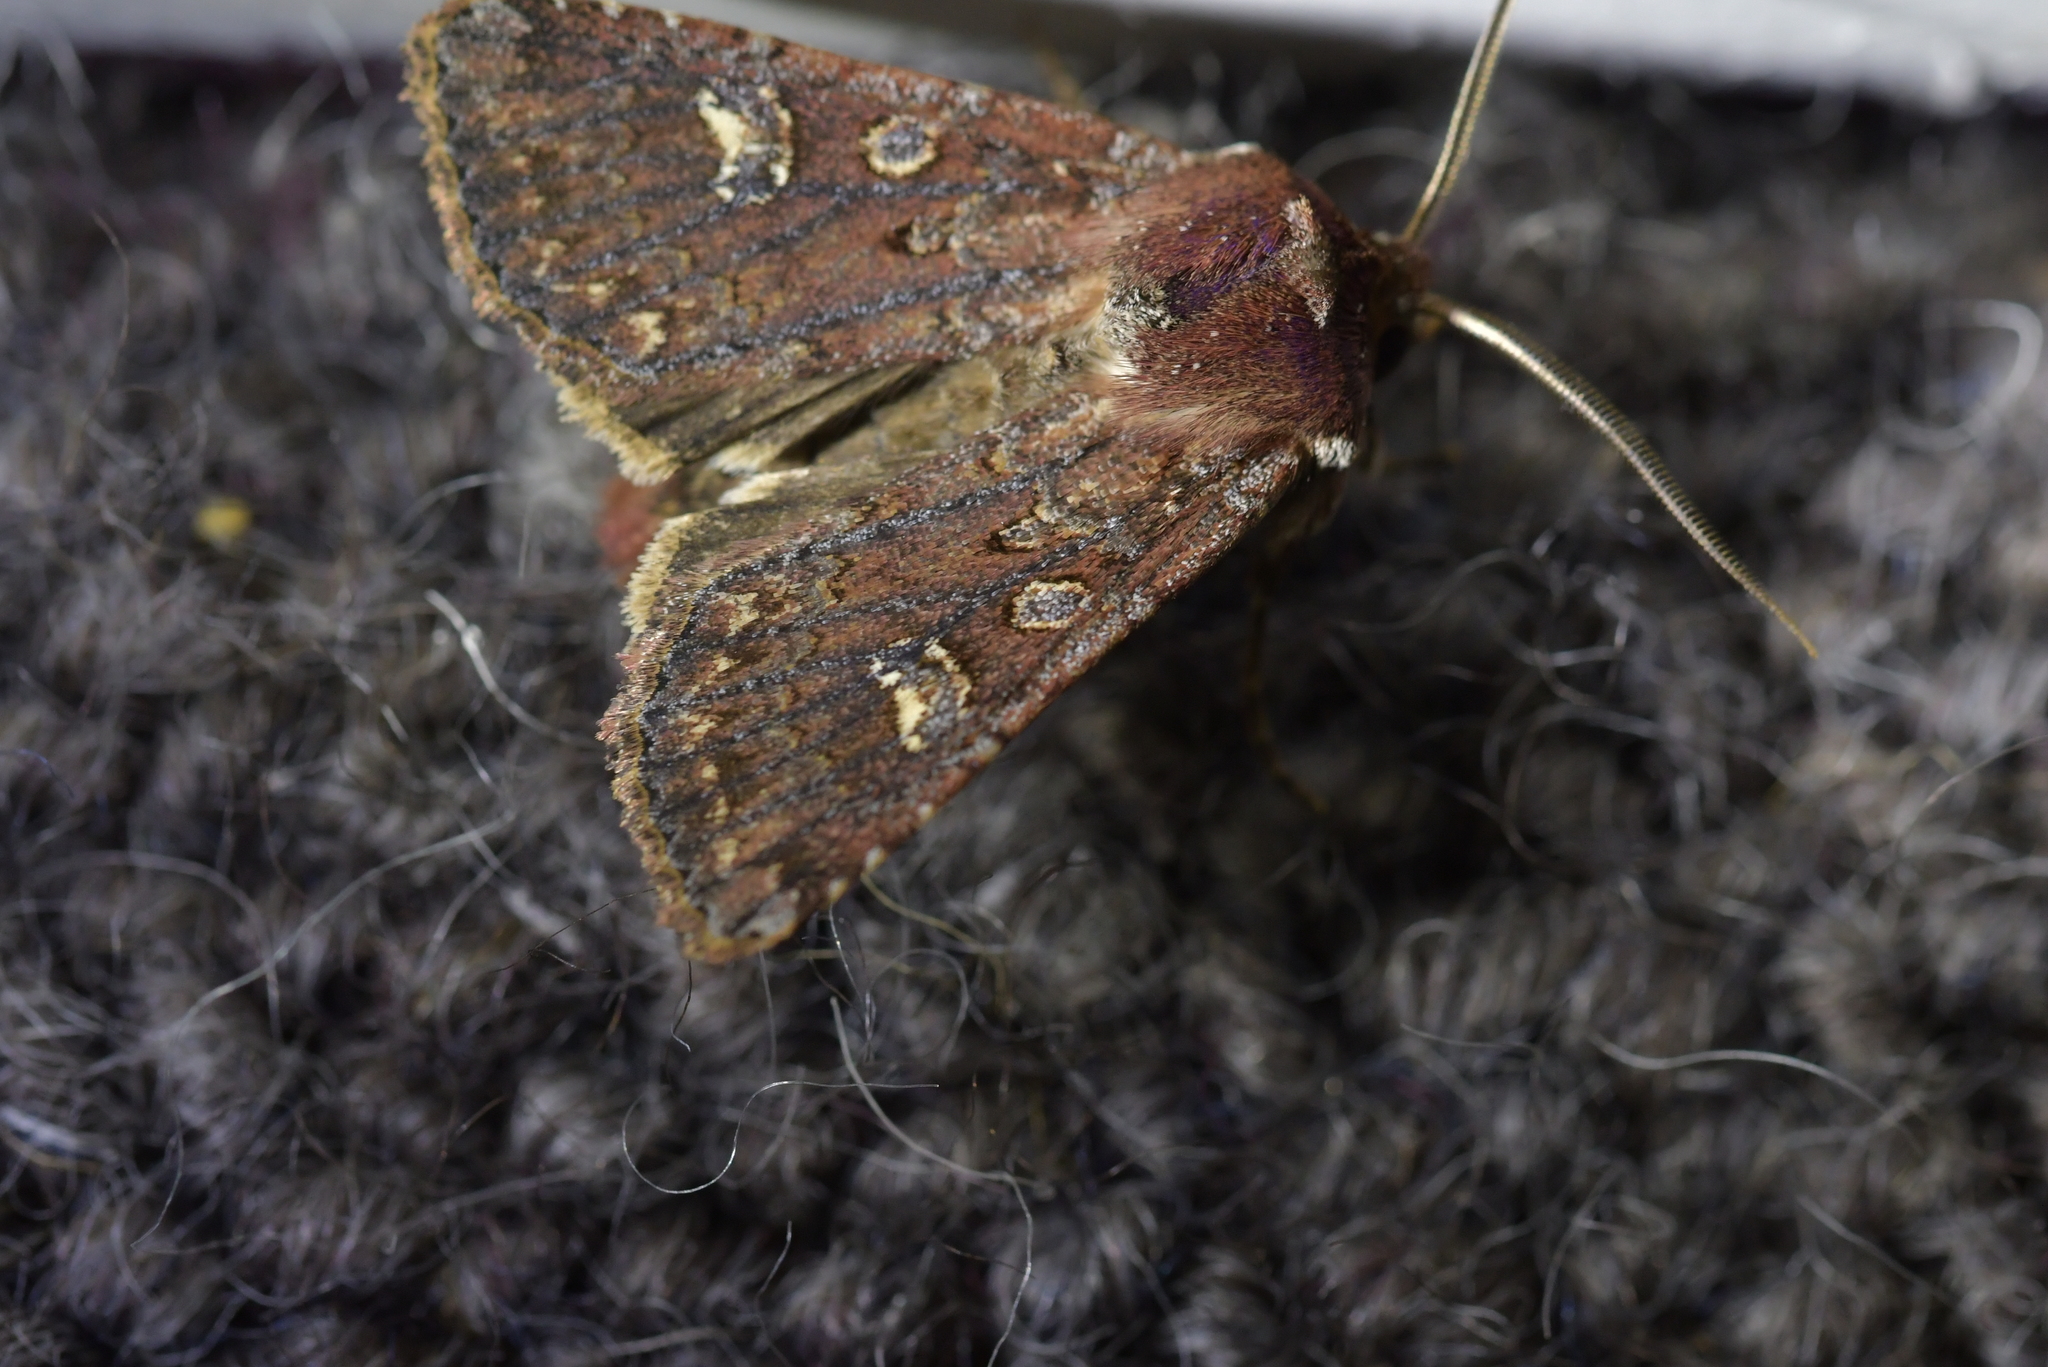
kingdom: Animalia
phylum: Arthropoda
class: Insecta
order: Lepidoptera
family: Noctuidae
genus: Ichneutica
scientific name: Ichneutica agorastis
